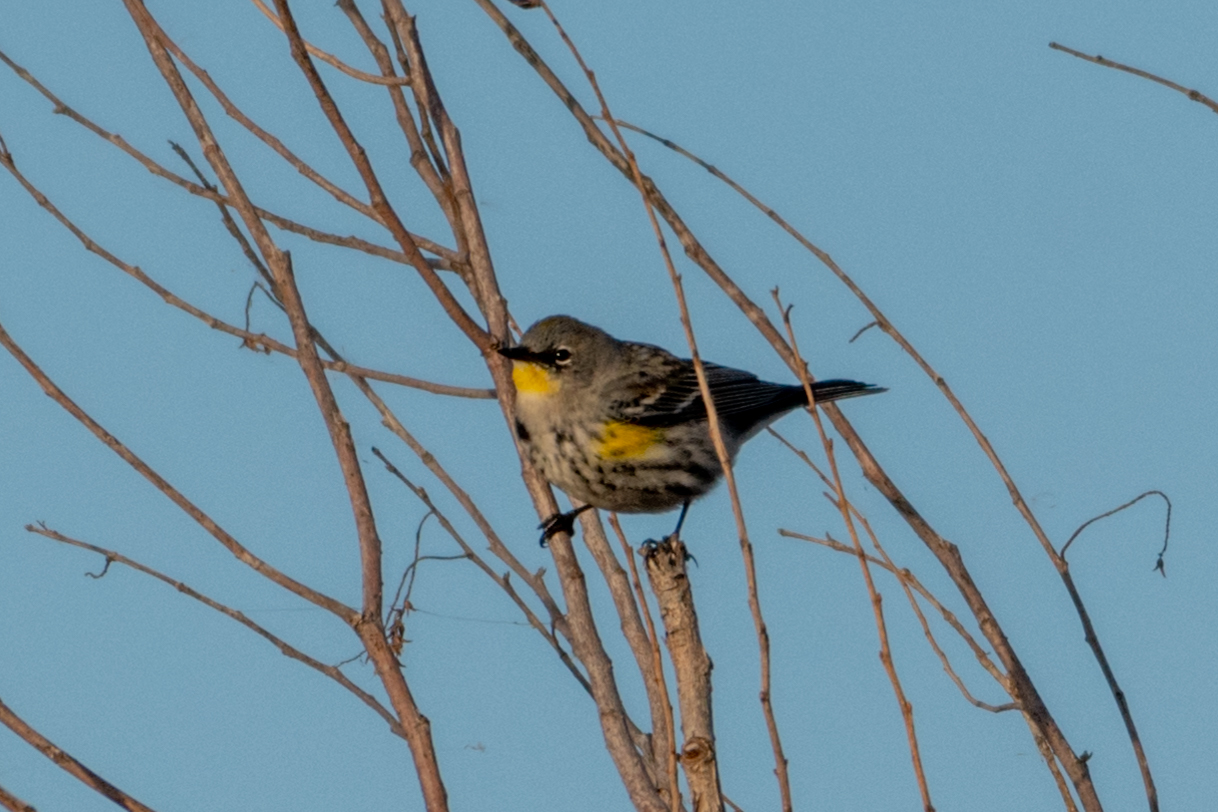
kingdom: Animalia
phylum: Chordata
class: Aves
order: Passeriformes
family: Parulidae
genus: Setophaga
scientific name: Setophaga coronata
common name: Myrtle warbler
